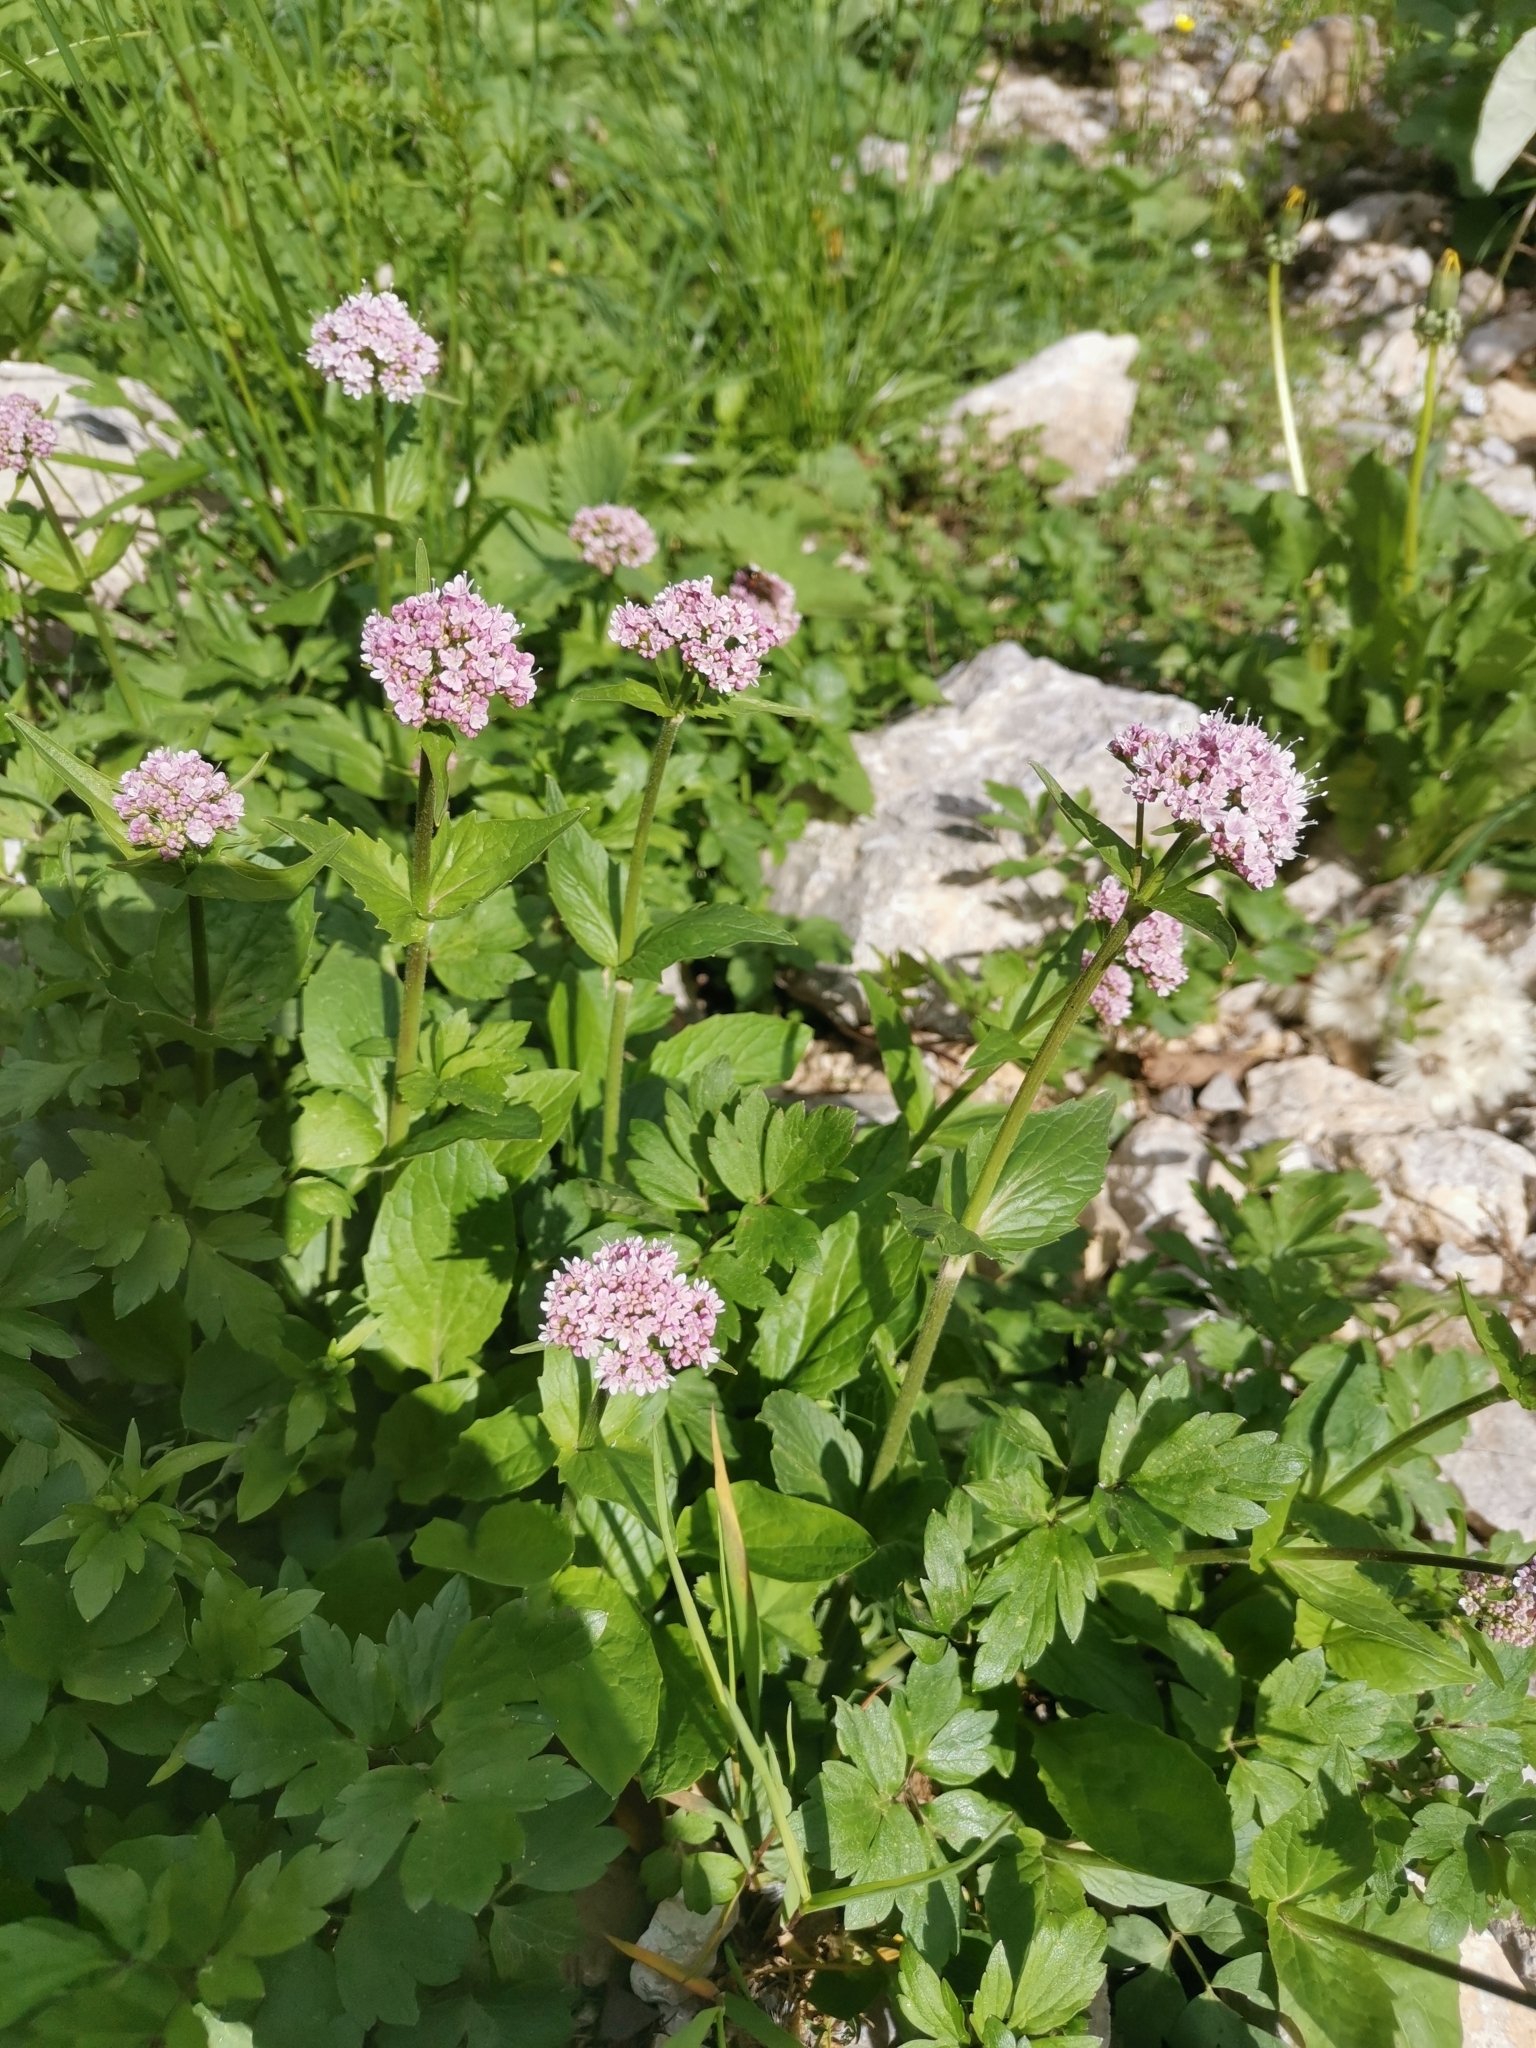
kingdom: Plantae
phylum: Tracheophyta
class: Magnoliopsida
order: Dipsacales
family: Caprifoliaceae
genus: Valeriana
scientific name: Valeriana montana
